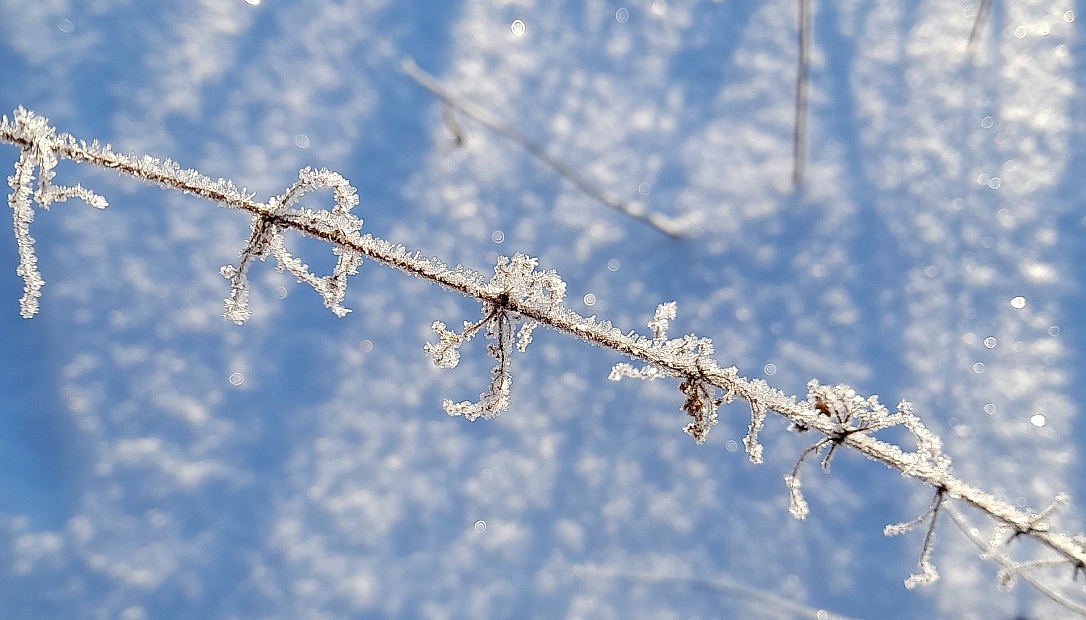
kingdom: Plantae
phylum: Tracheophyta
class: Magnoliopsida
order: Rosales
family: Urticaceae
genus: Urtica
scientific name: Urtica dioica
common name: Common nettle
